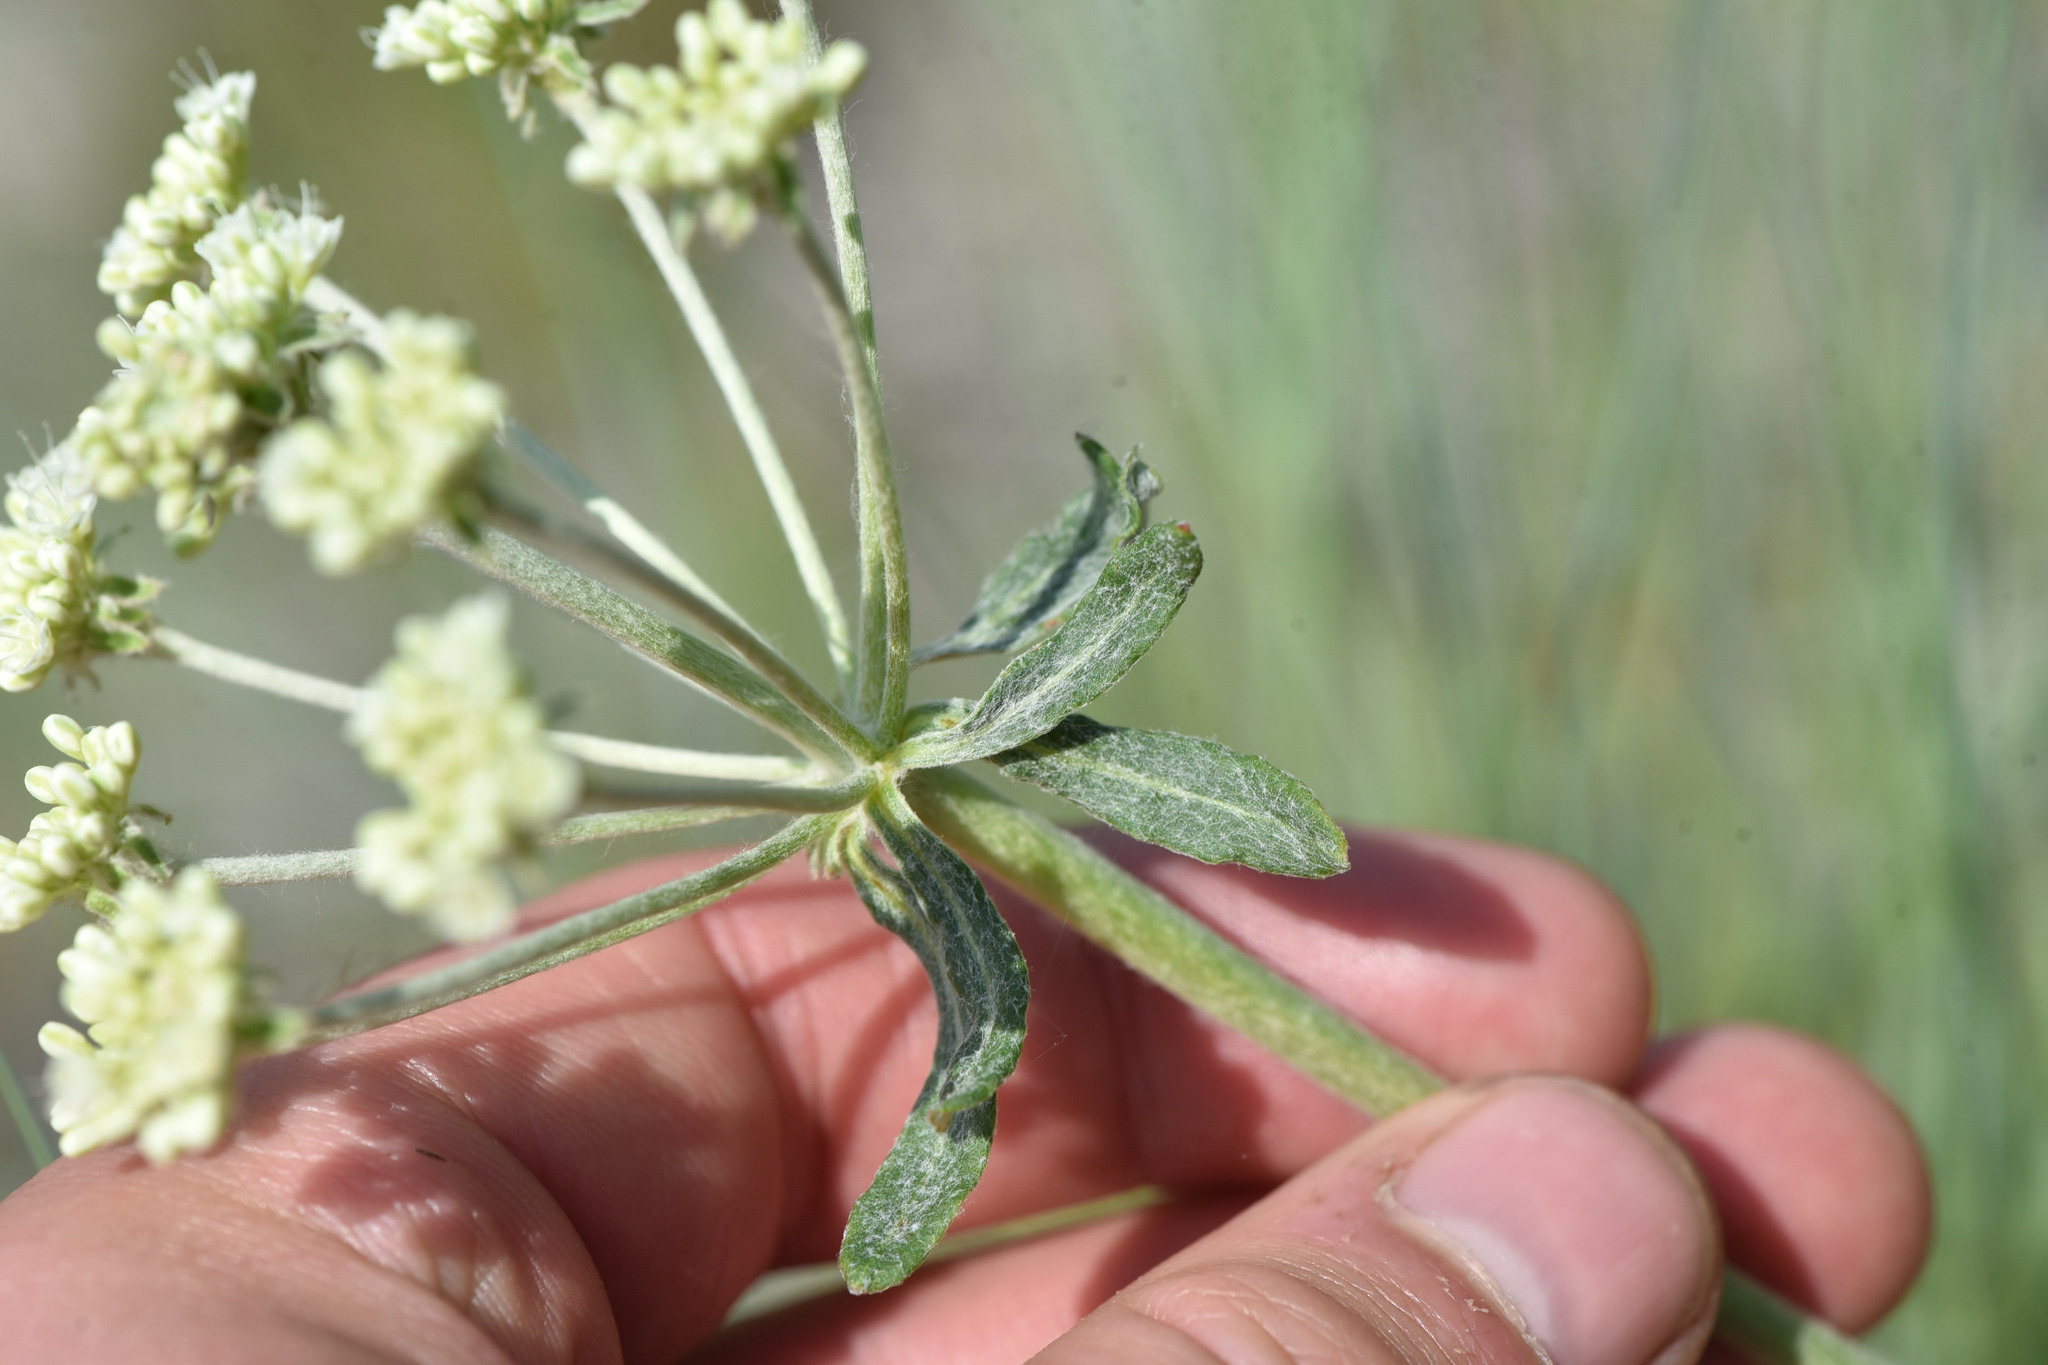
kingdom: Plantae
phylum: Tracheophyta
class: Magnoliopsida
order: Caryophyllales
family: Polygonaceae
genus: Eriogonum
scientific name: Eriogonum heracleoides
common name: Wyeth's buckwheat
